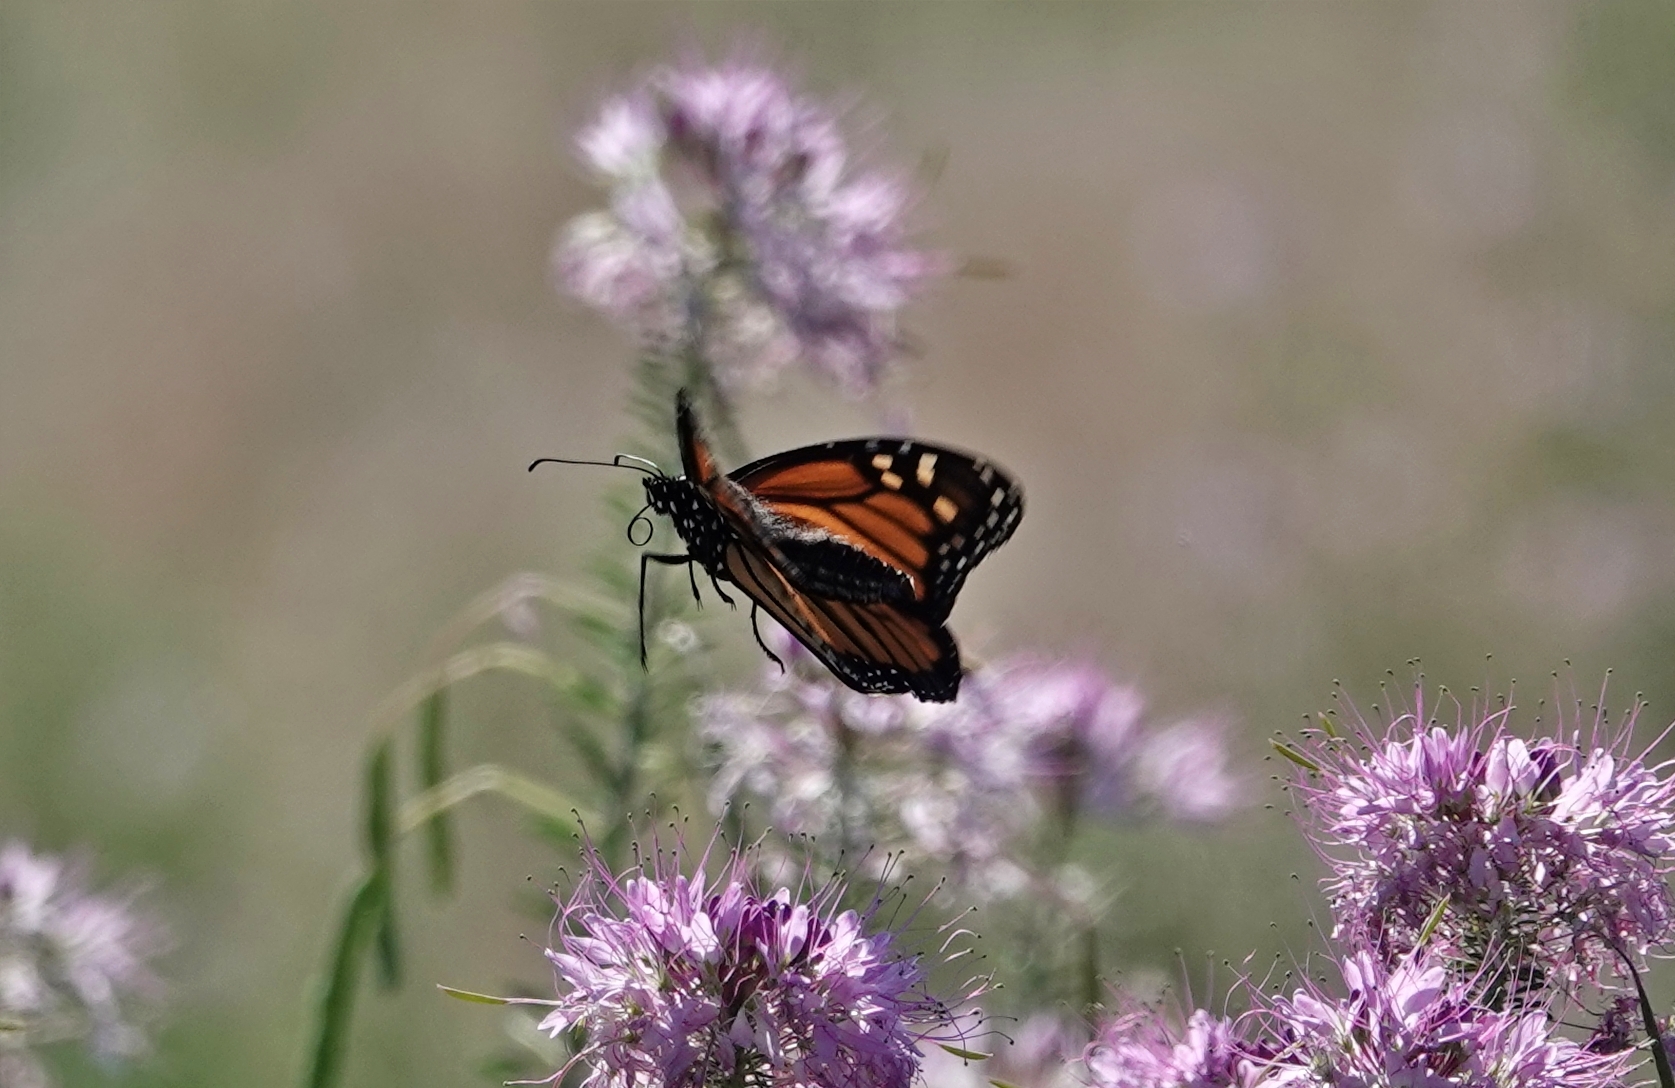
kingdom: Animalia
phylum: Arthropoda
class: Insecta
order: Lepidoptera
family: Nymphalidae
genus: Danaus
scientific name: Danaus plexippus
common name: Monarch
